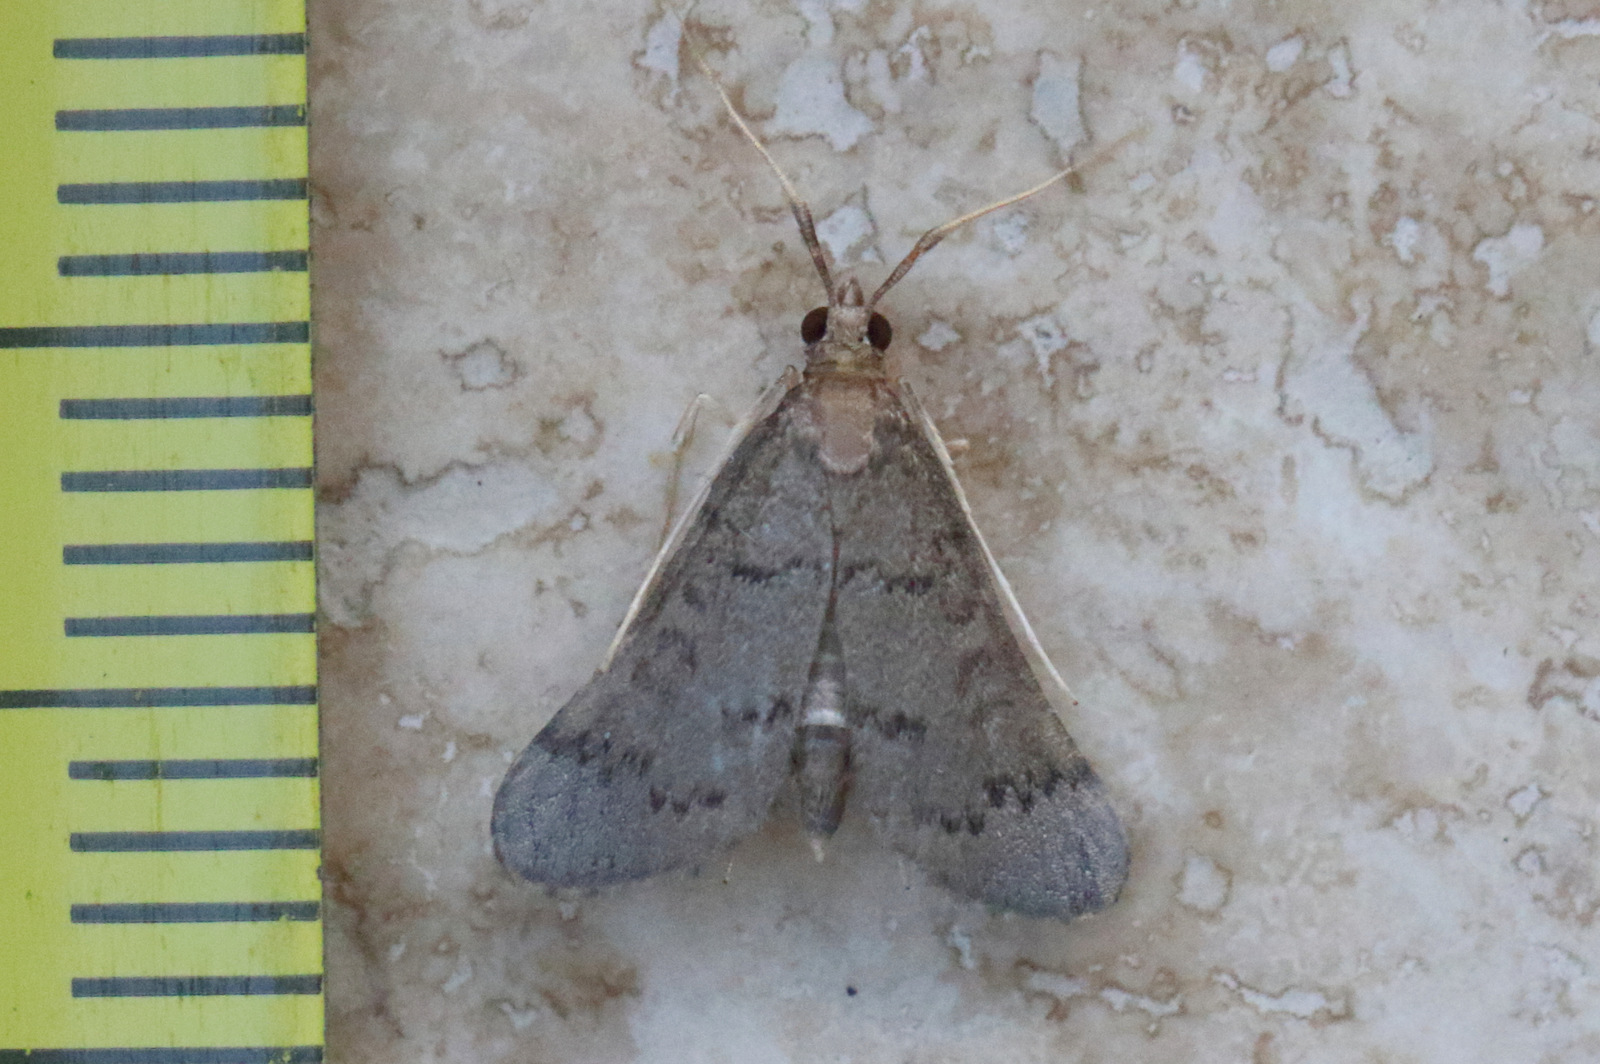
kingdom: Animalia
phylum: Arthropoda
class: Insecta
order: Lepidoptera
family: Crambidae
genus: Piletocera
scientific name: Piletocera macroperalis
